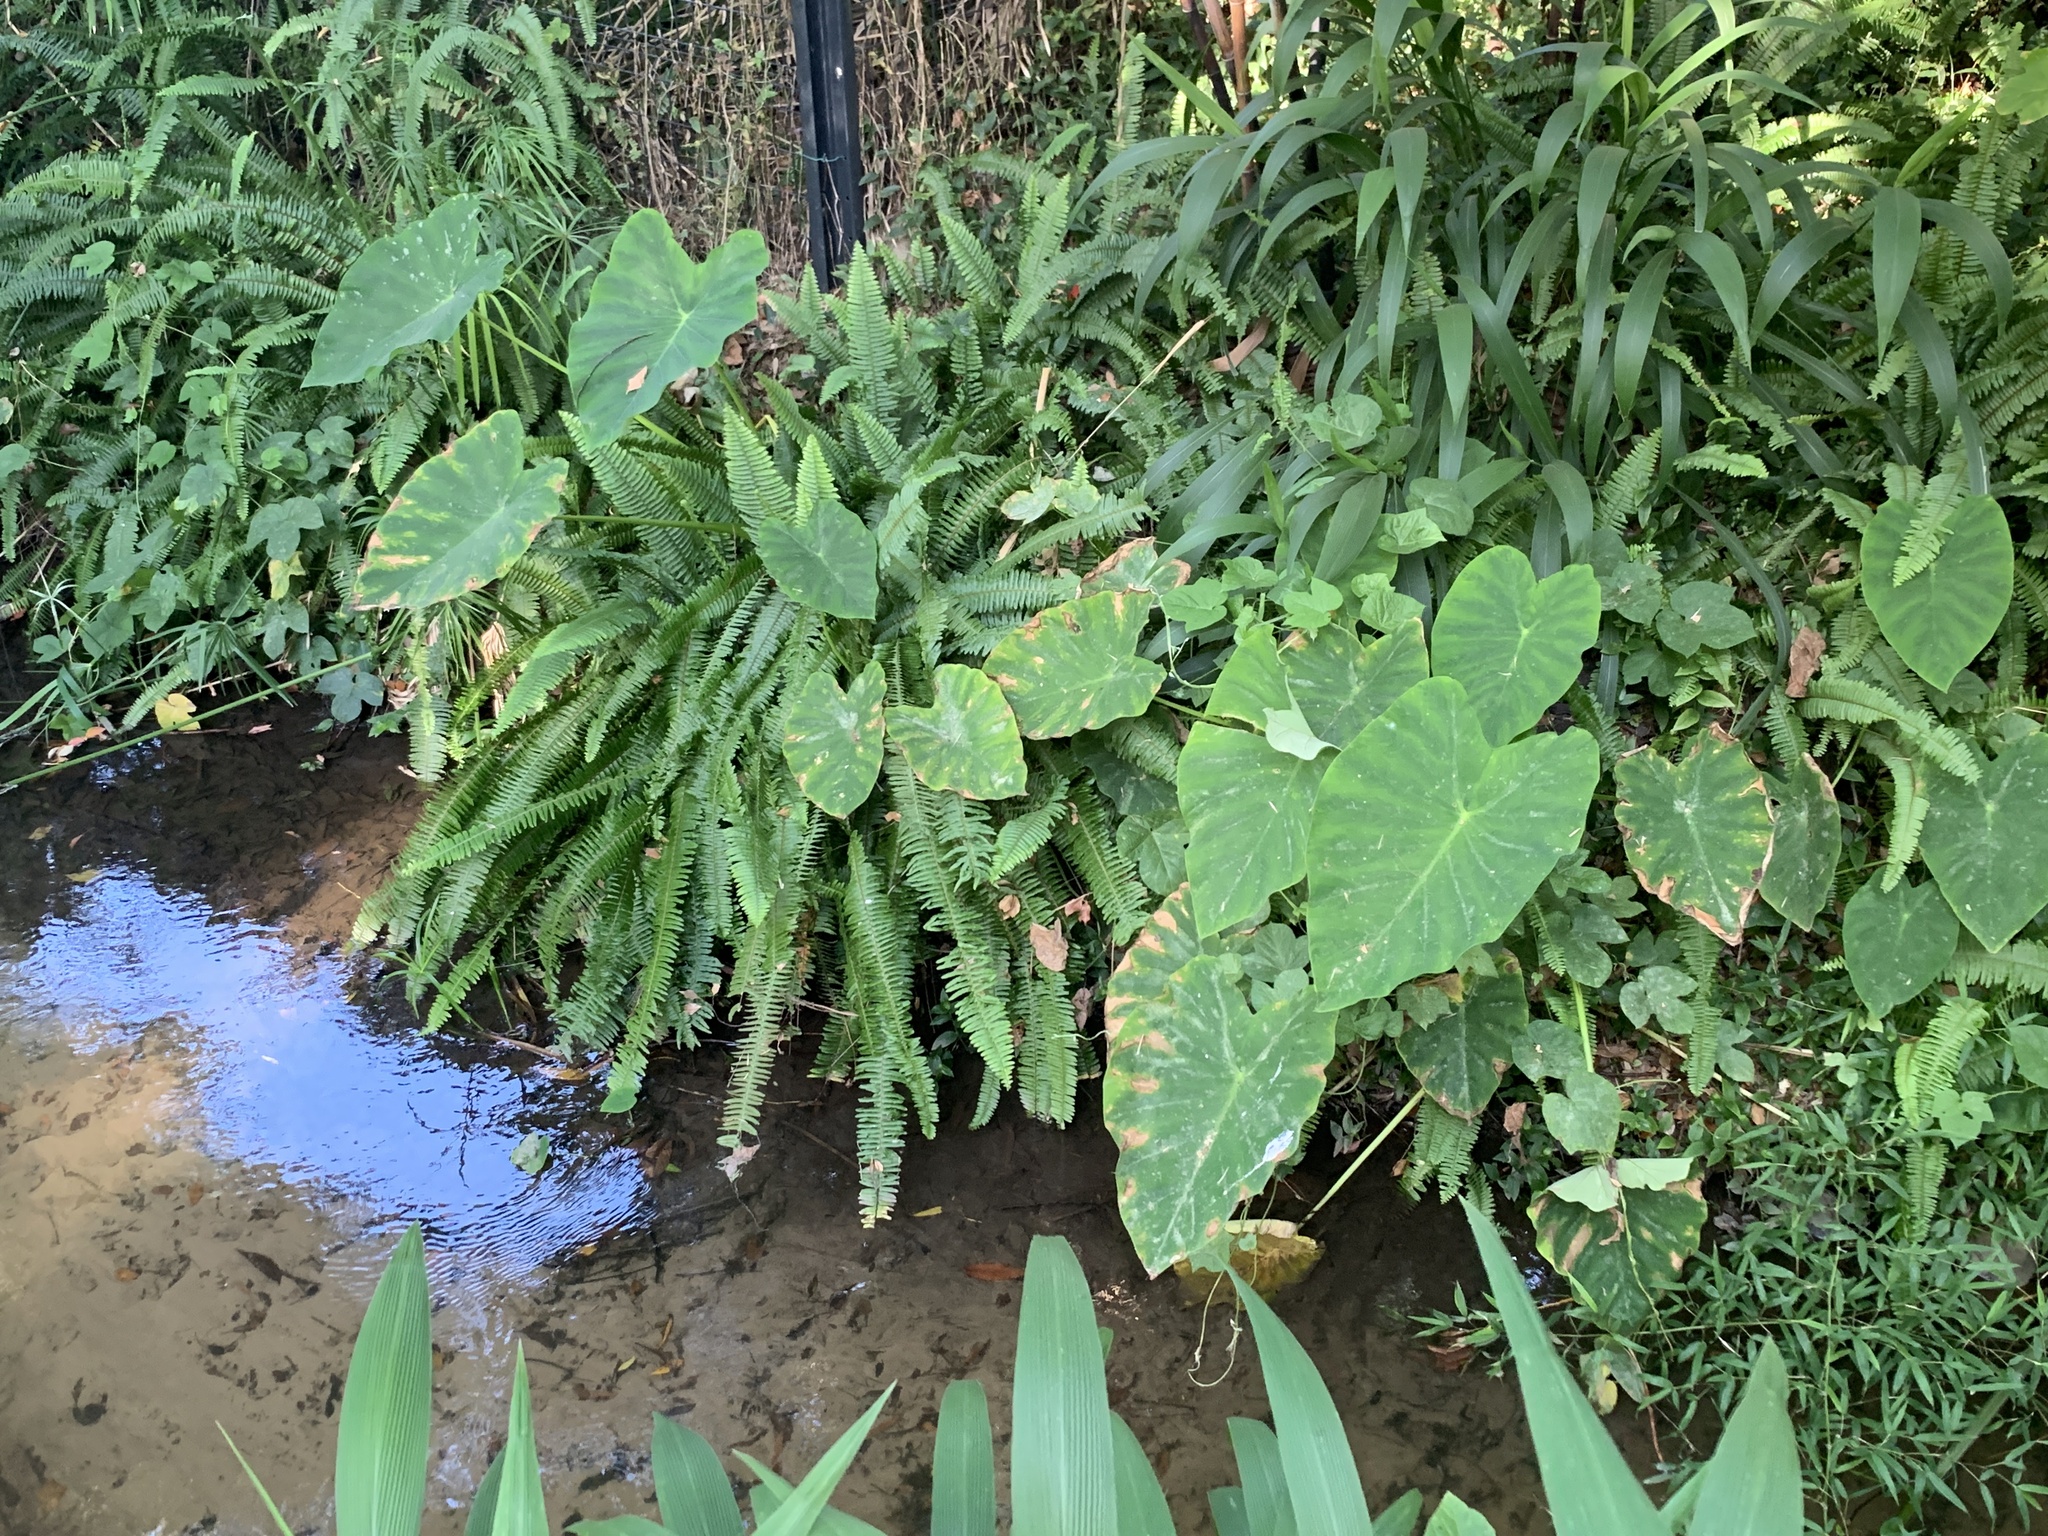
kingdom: Plantae
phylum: Tracheophyta
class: Liliopsida
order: Alismatales
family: Araceae
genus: Colocasia
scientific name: Colocasia esculenta
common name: Taro
